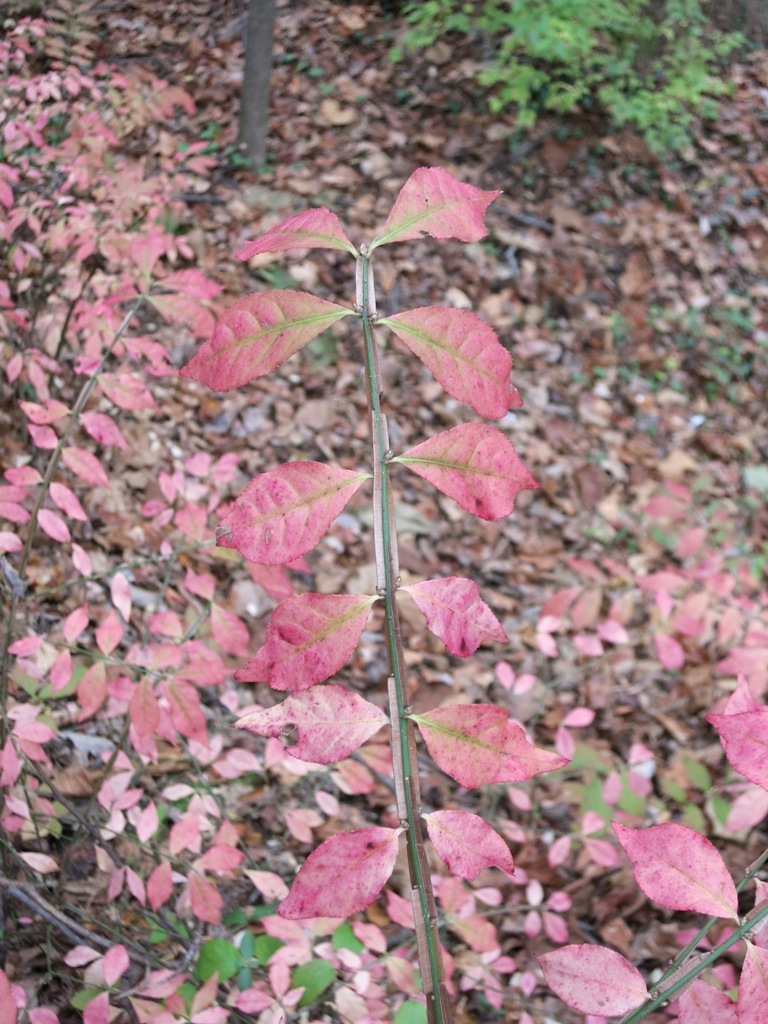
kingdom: Plantae
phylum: Tracheophyta
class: Magnoliopsida
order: Celastrales
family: Celastraceae
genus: Euonymus
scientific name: Euonymus alatus
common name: Winged euonymus
